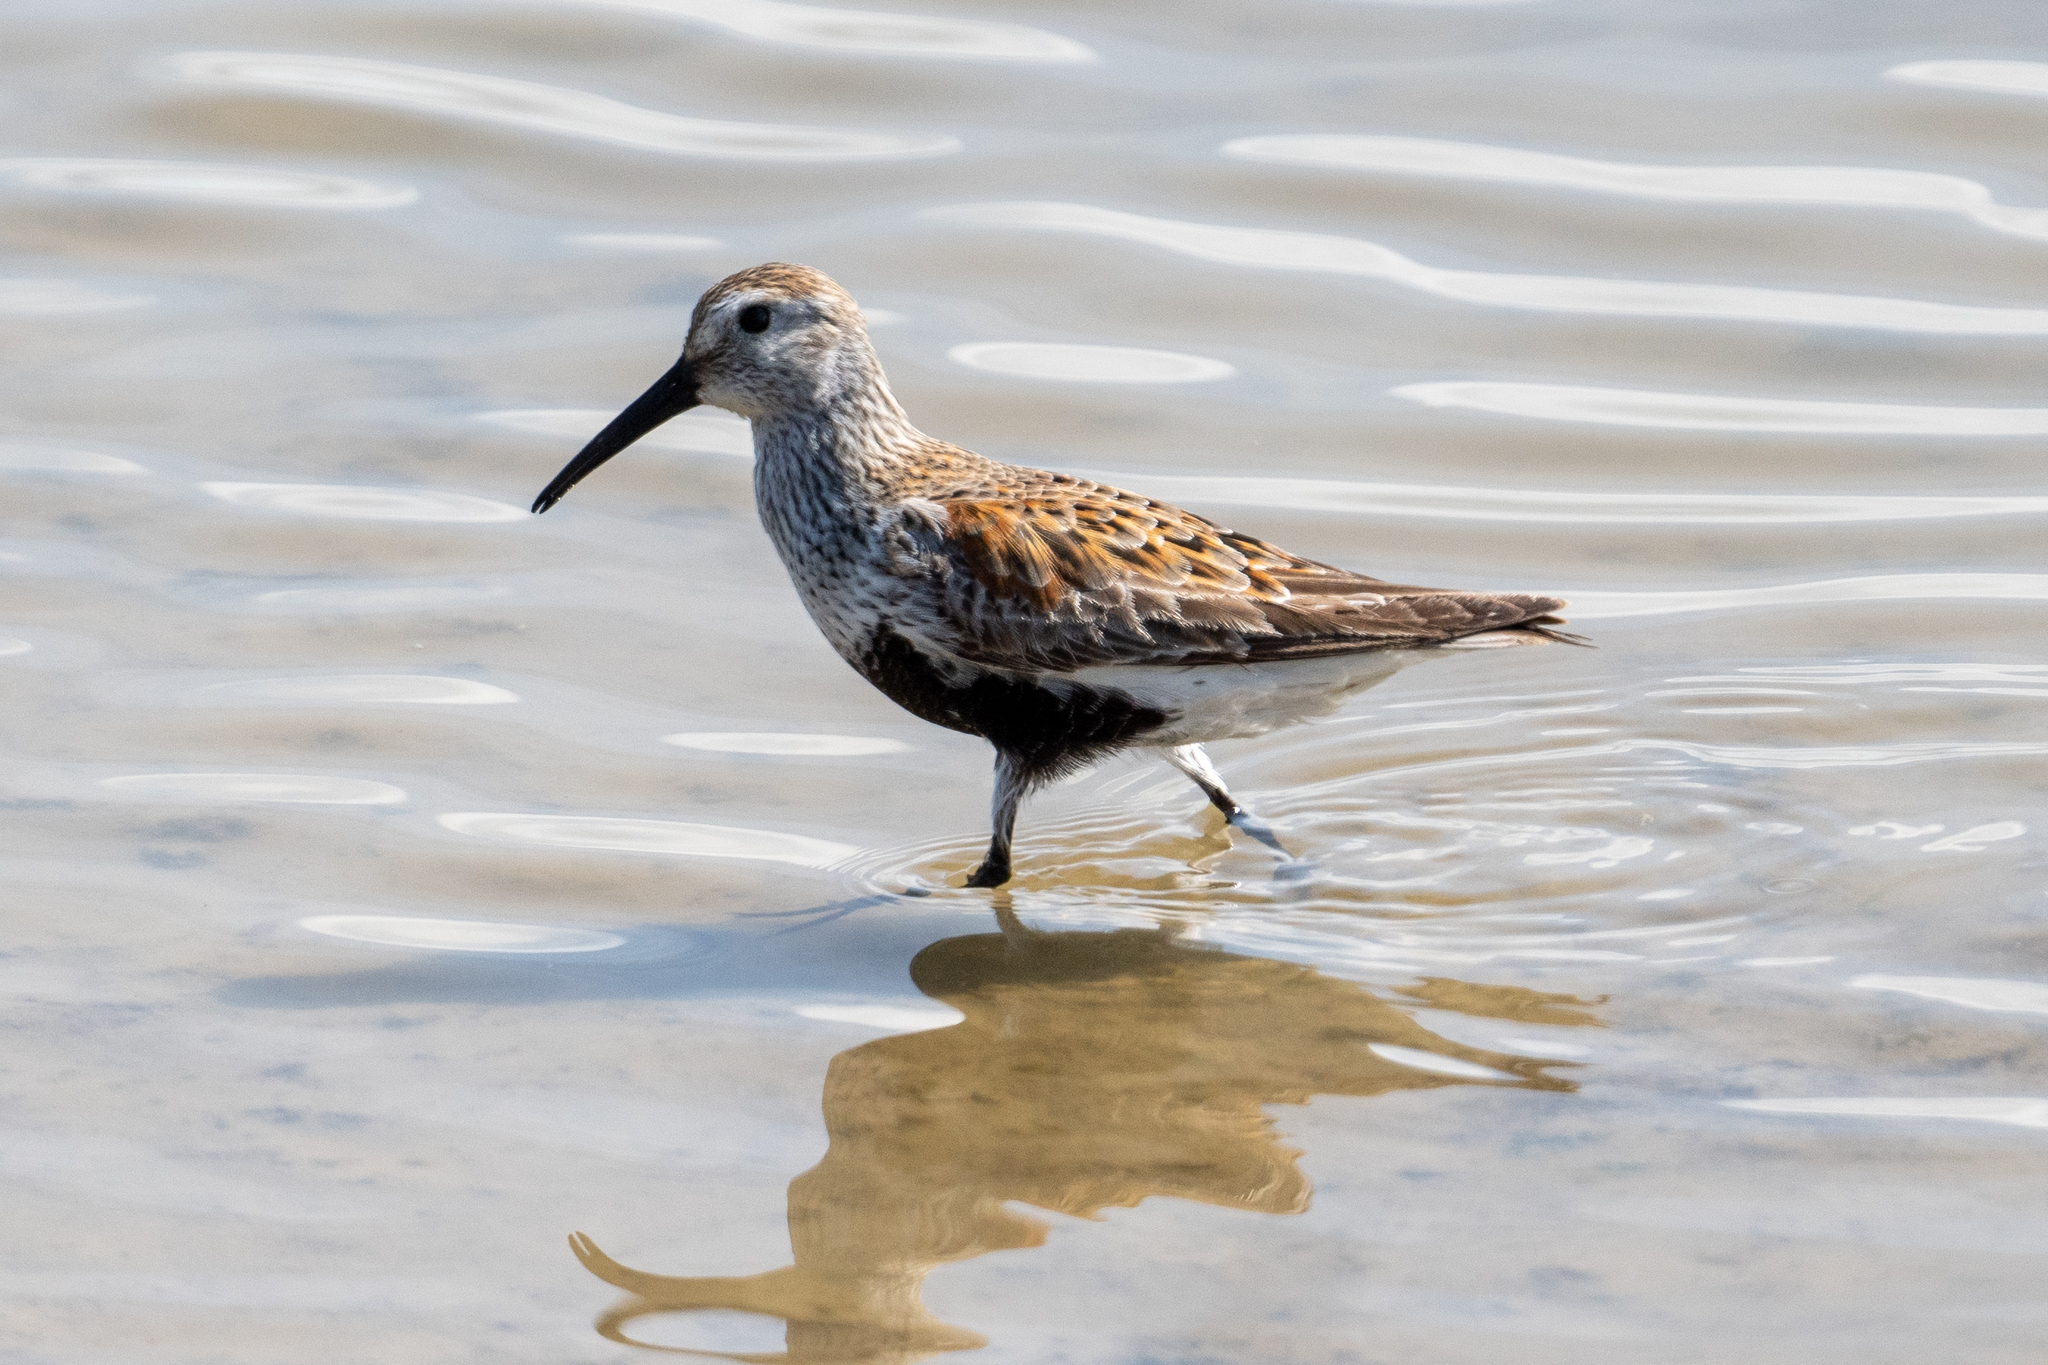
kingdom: Animalia
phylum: Chordata
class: Aves
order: Charadriiformes
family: Scolopacidae
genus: Calidris
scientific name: Calidris alpina
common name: Dunlin
